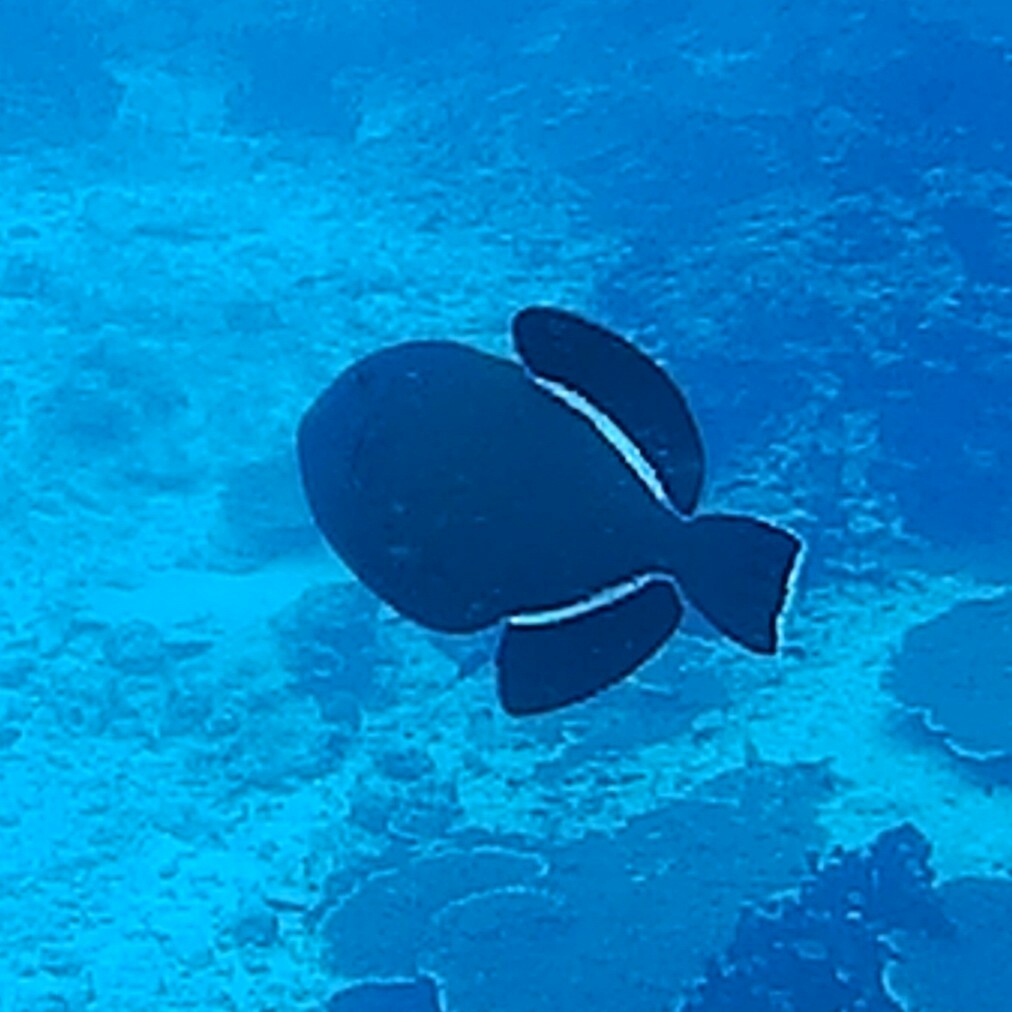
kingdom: Animalia
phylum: Chordata
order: Tetraodontiformes
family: Balistidae
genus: Melichthys
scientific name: Melichthys indicus
